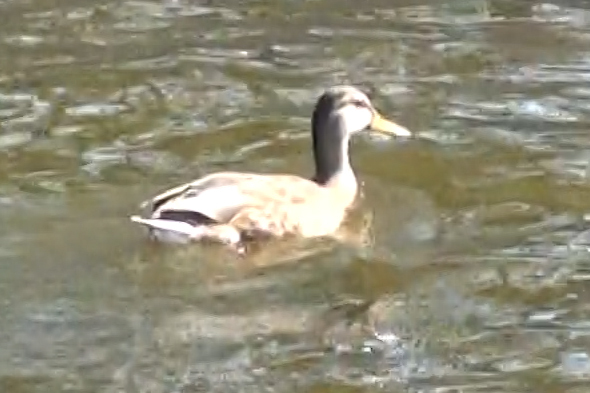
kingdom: Animalia
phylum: Chordata
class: Aves
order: Anseriformes
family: Anatidae
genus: Anas
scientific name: Anas platyrhynchos
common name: Mallard
